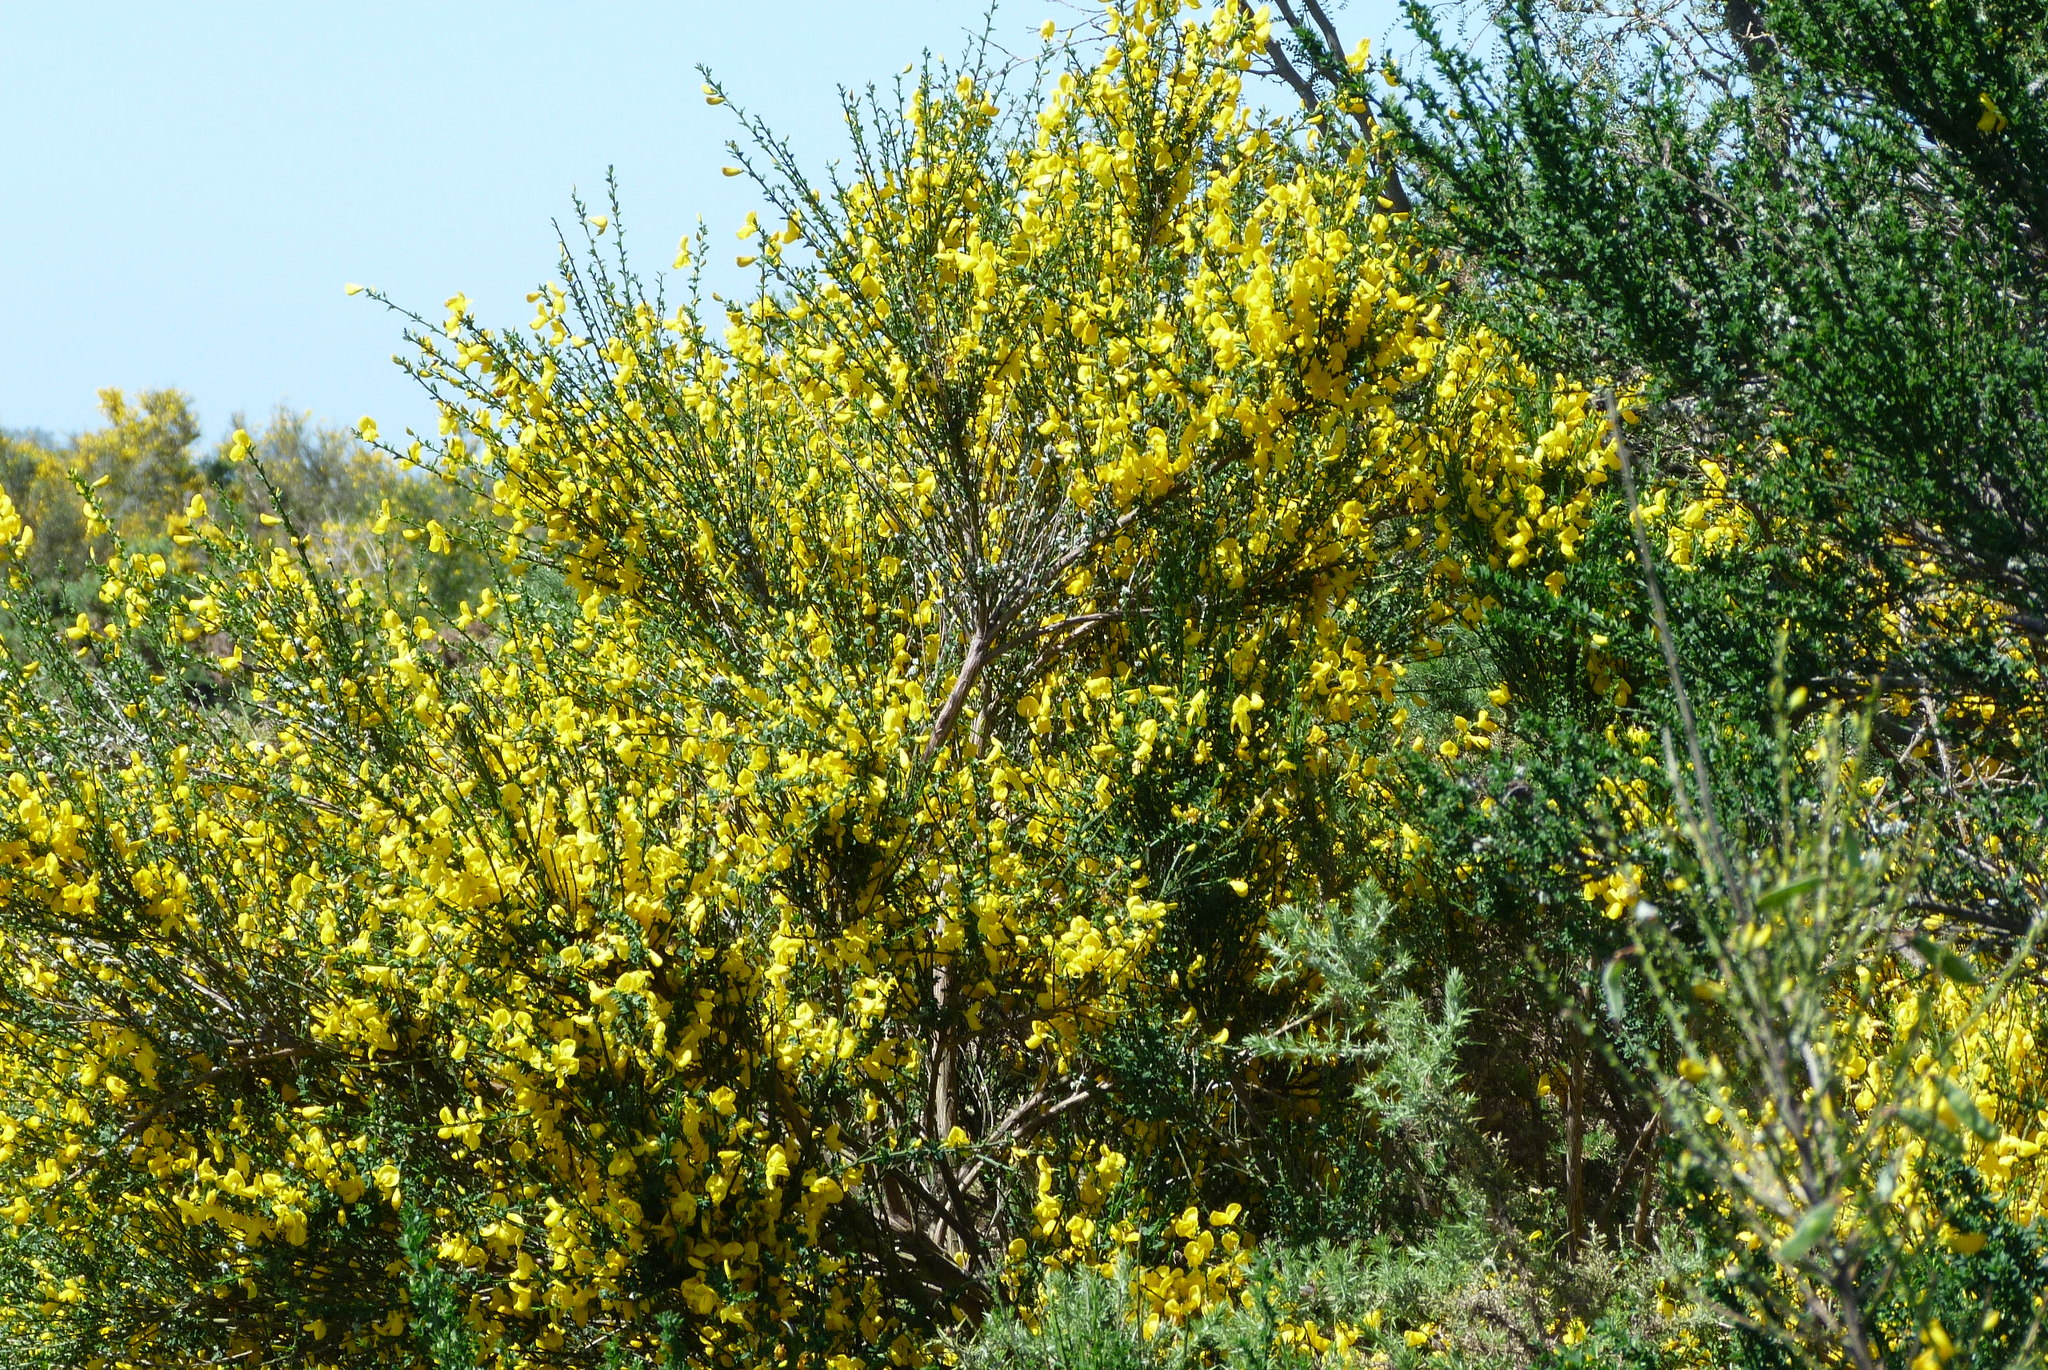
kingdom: Plantae
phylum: Tracheophyta
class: Magnoliopsida
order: Fabales
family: Fabaceae
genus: Cytisus
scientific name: Cytisus scoparius
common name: Scotch broom
